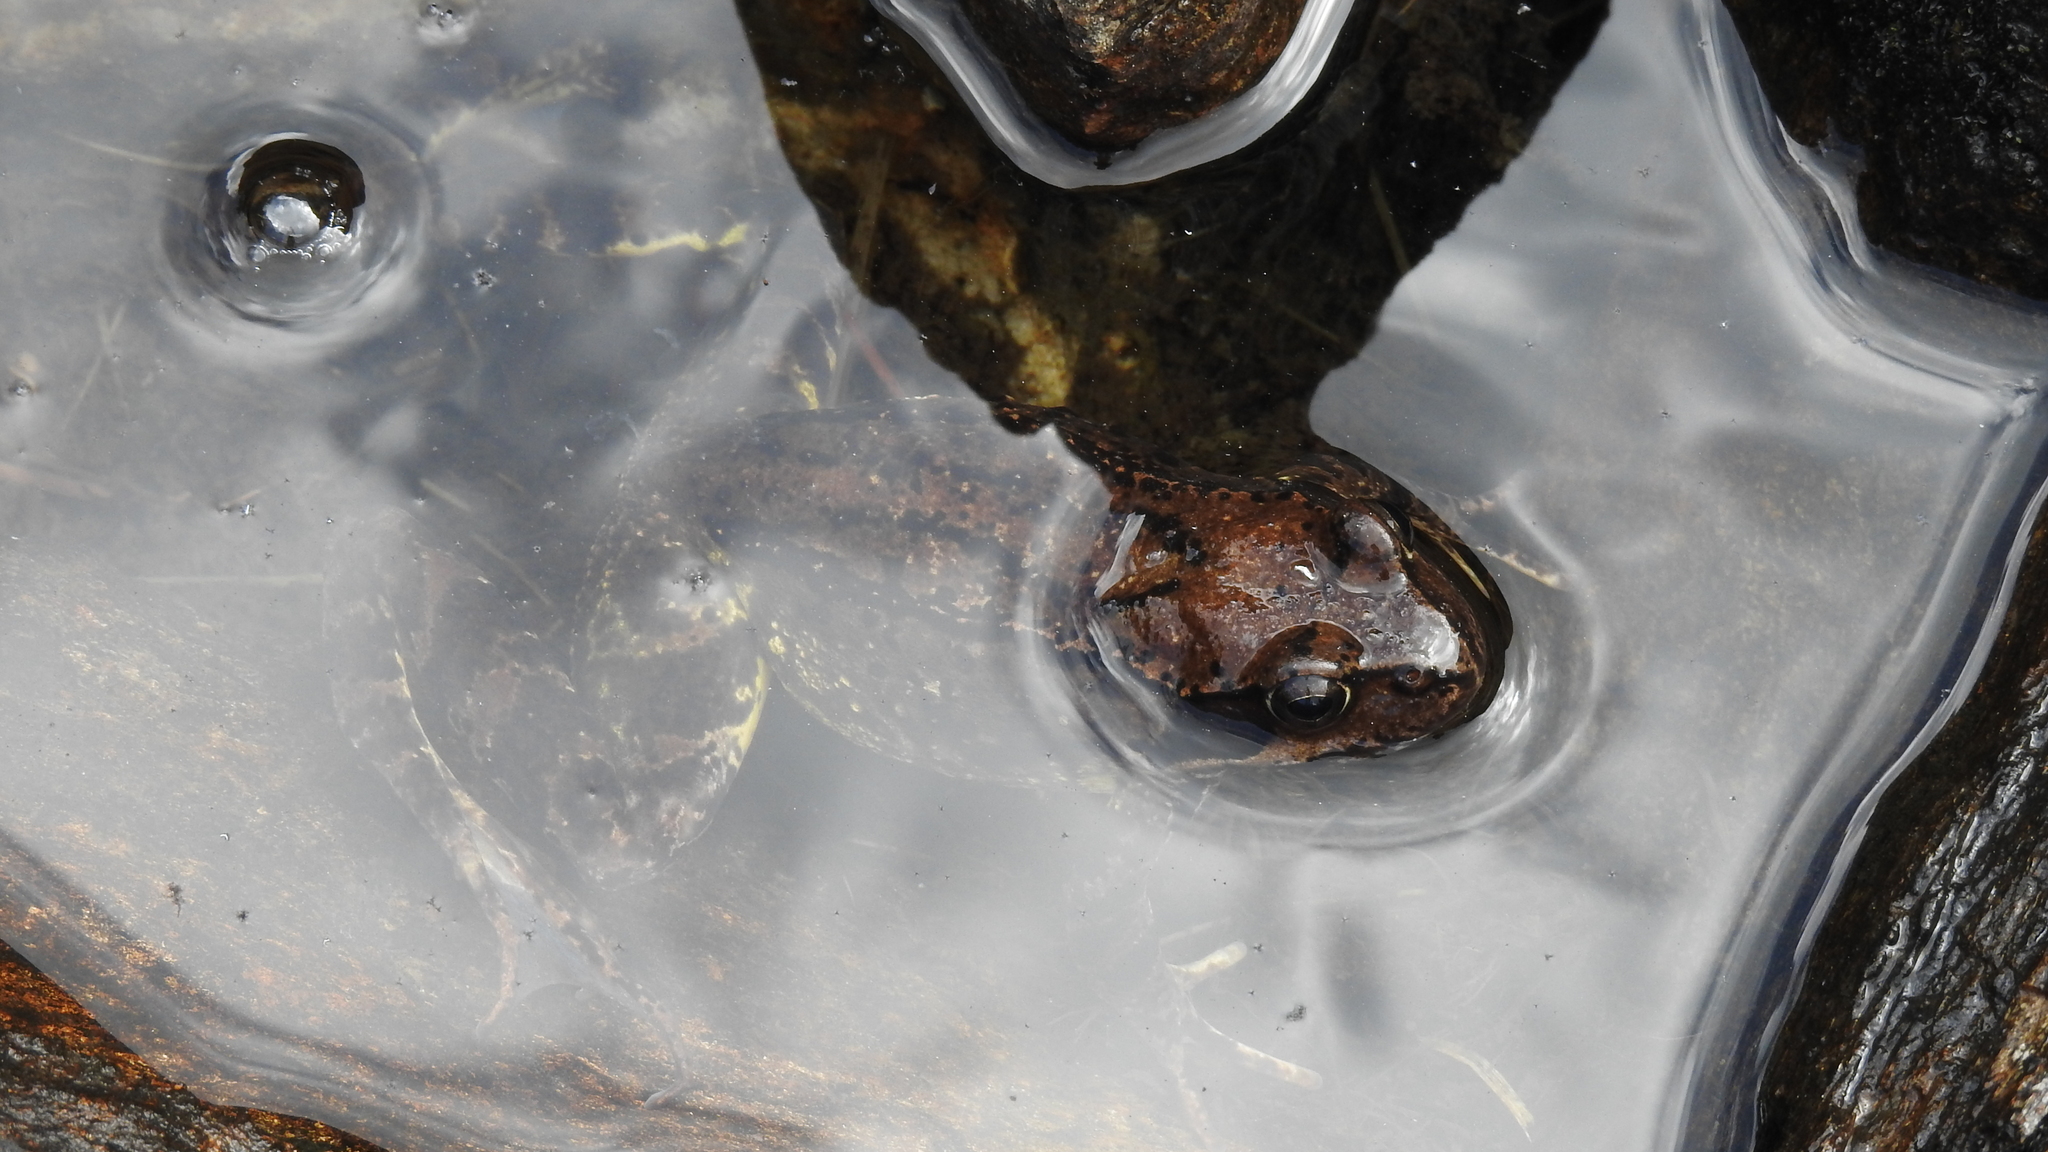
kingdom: Animalia
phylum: Chordata
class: Amphibia
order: Anura
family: Ranidae
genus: Rana
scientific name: Rana temporaria
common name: Common frog
